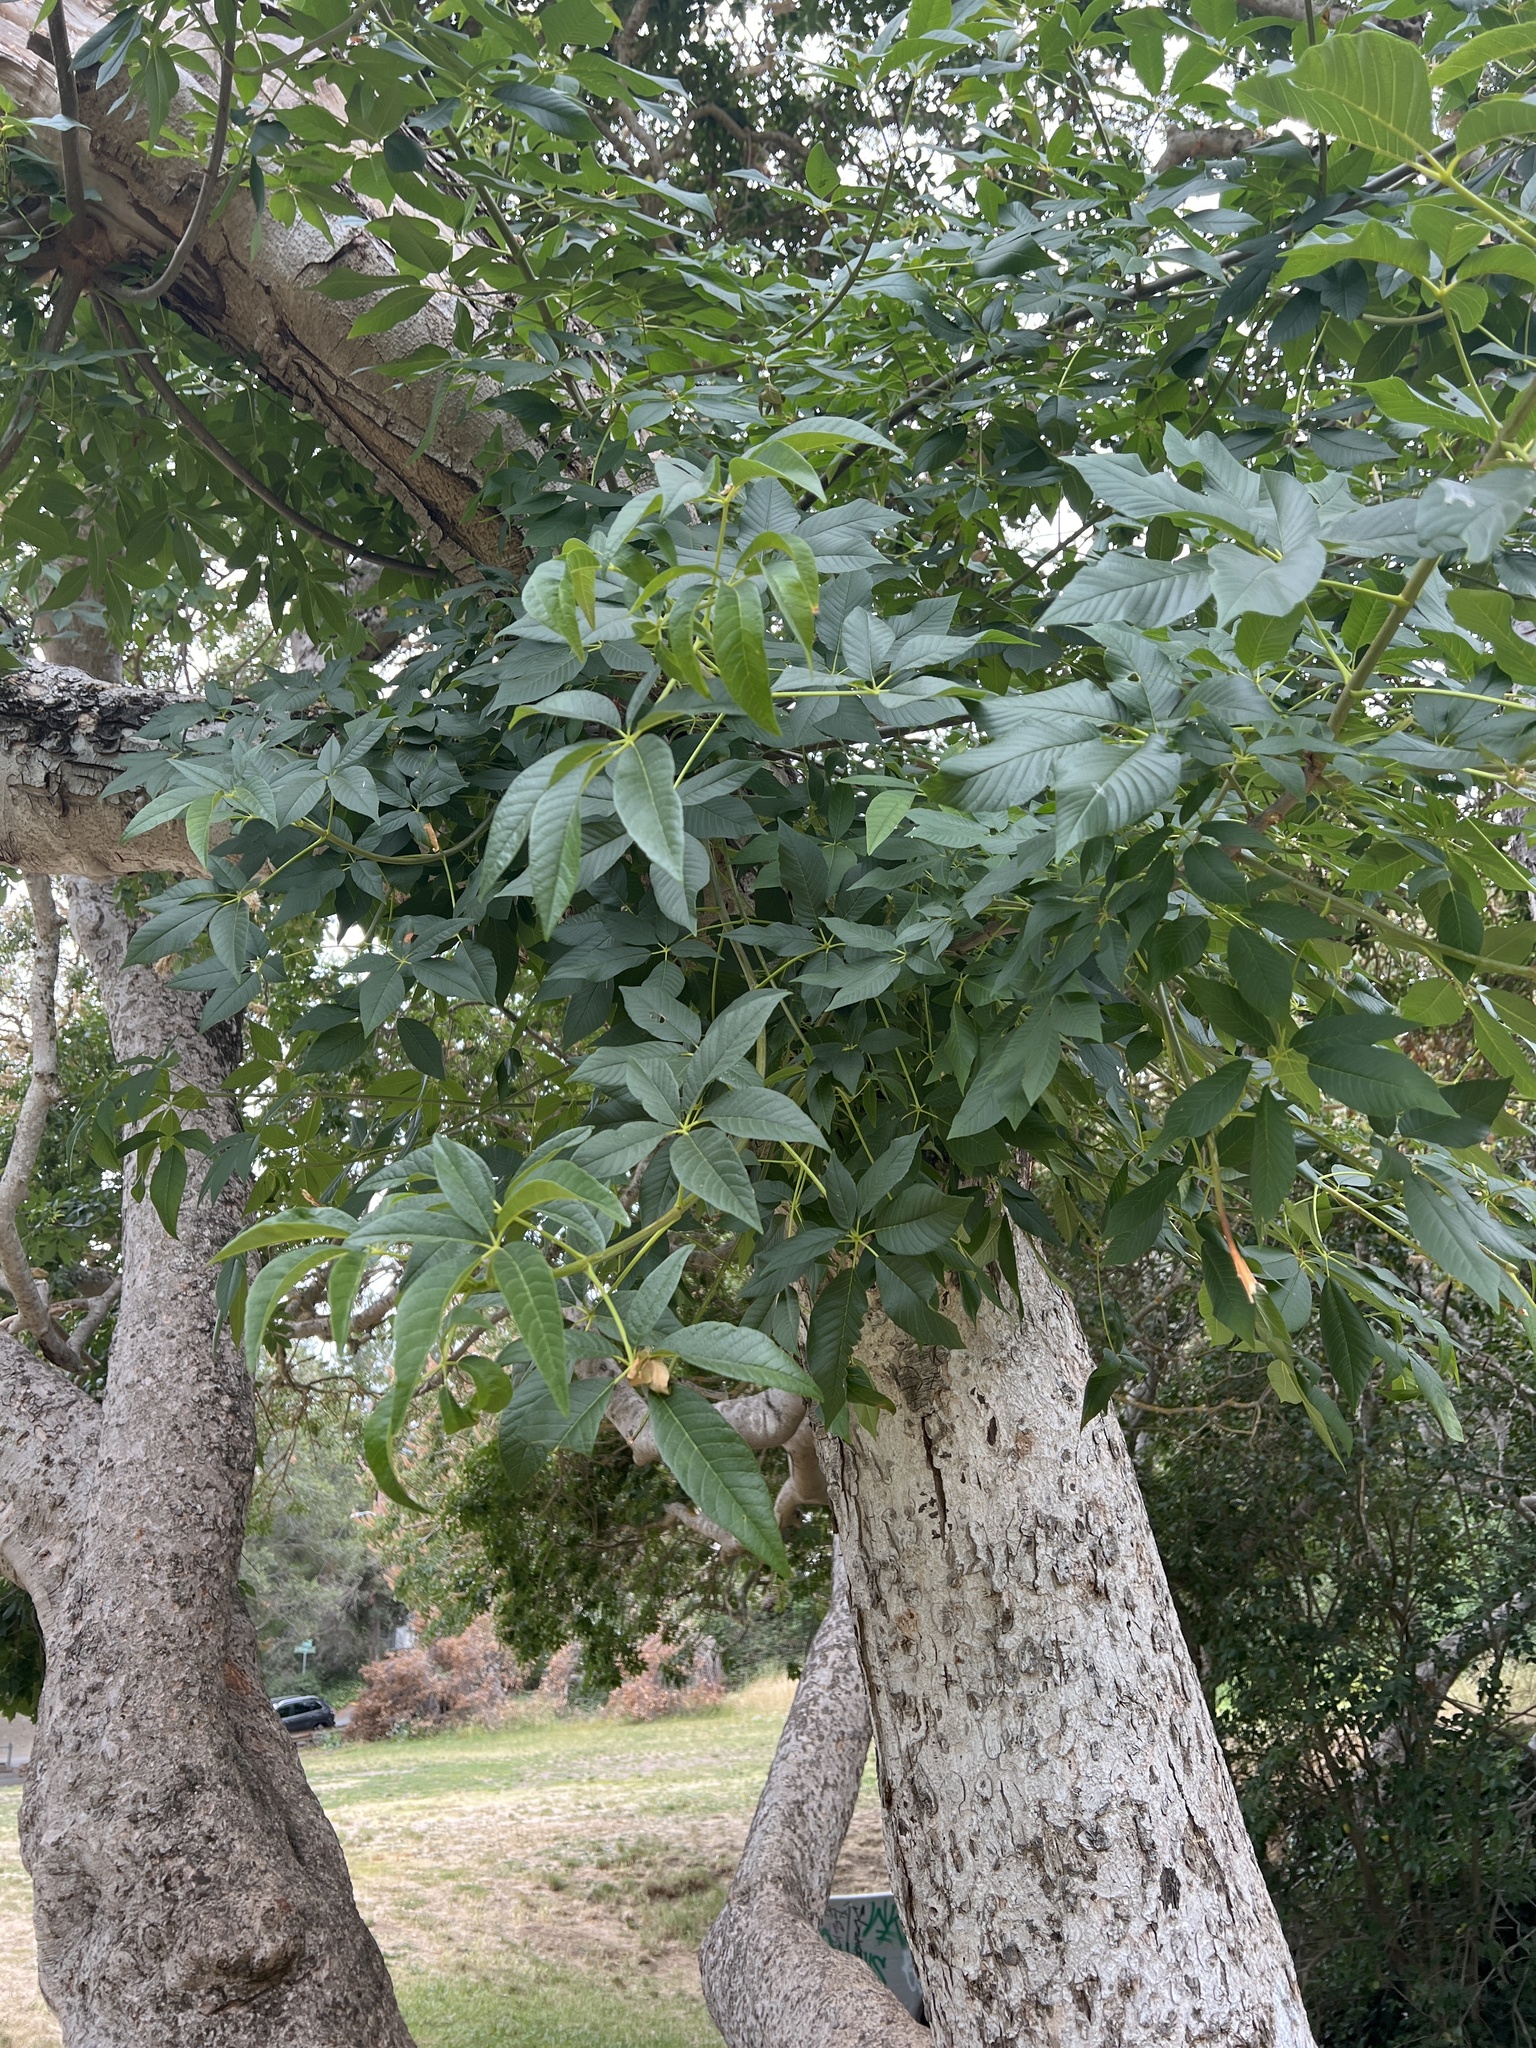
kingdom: Plantae
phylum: Tracheophyta
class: Magnoliopsida
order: Sapindales
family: Sapindaceae
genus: Aesculus
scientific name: Aesculus californica
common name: California buckeye
